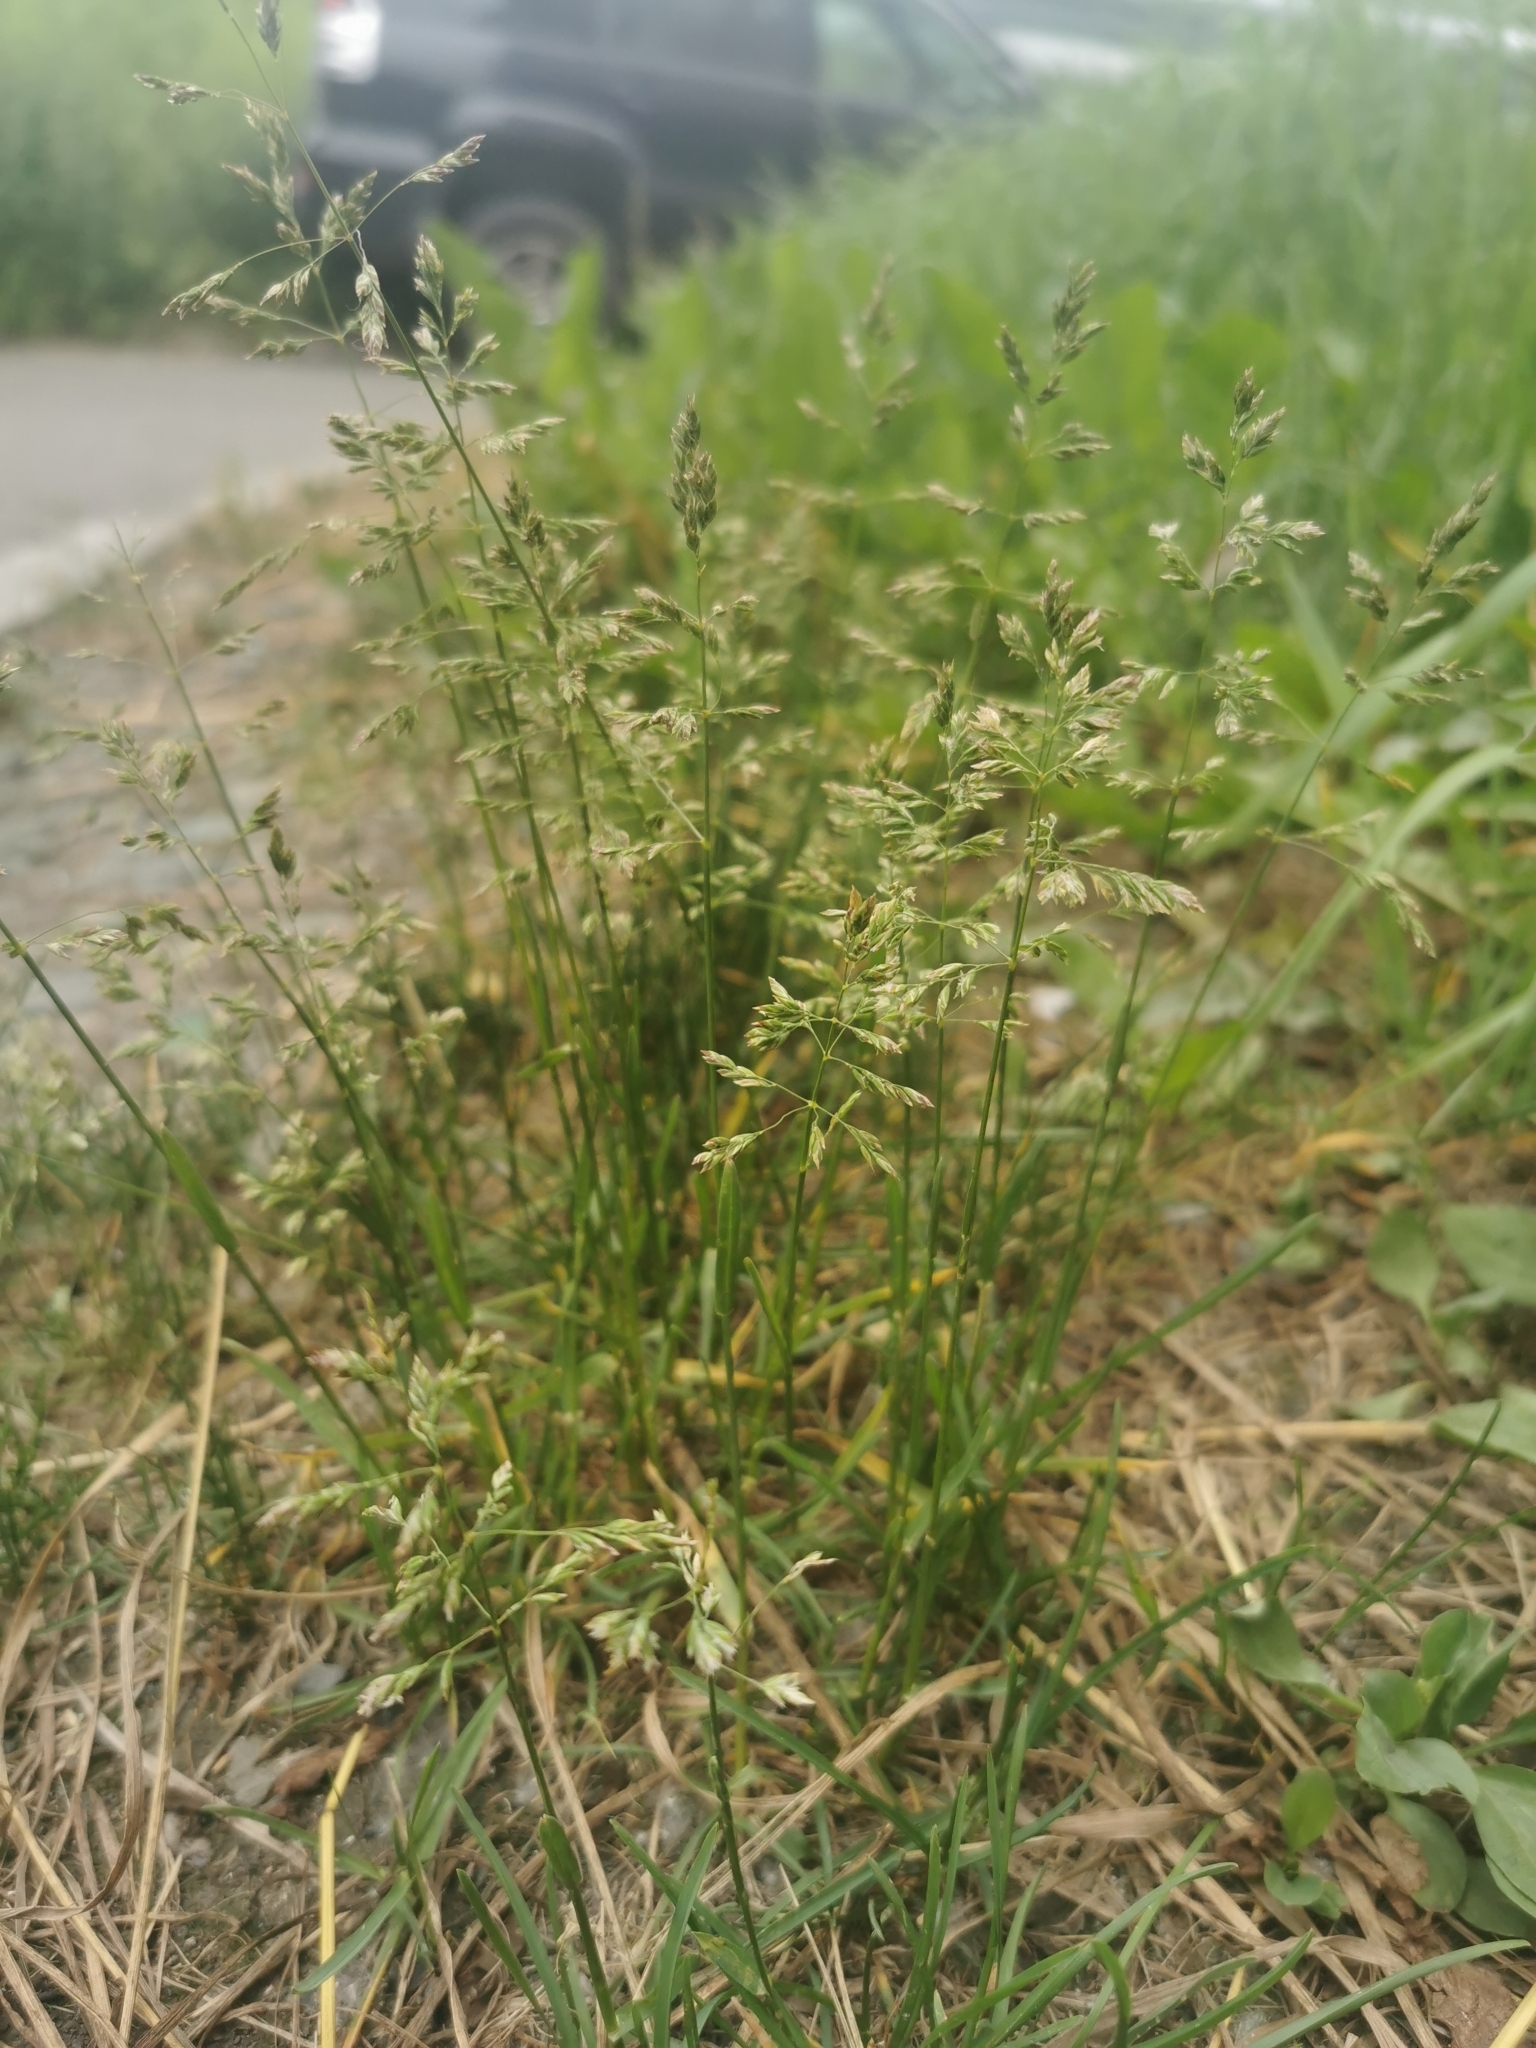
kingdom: Plantae
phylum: Tracheophyta
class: Liliopsida
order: Poales
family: Poaceae
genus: Poa
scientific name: Poa annua
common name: Annual bluegrass
